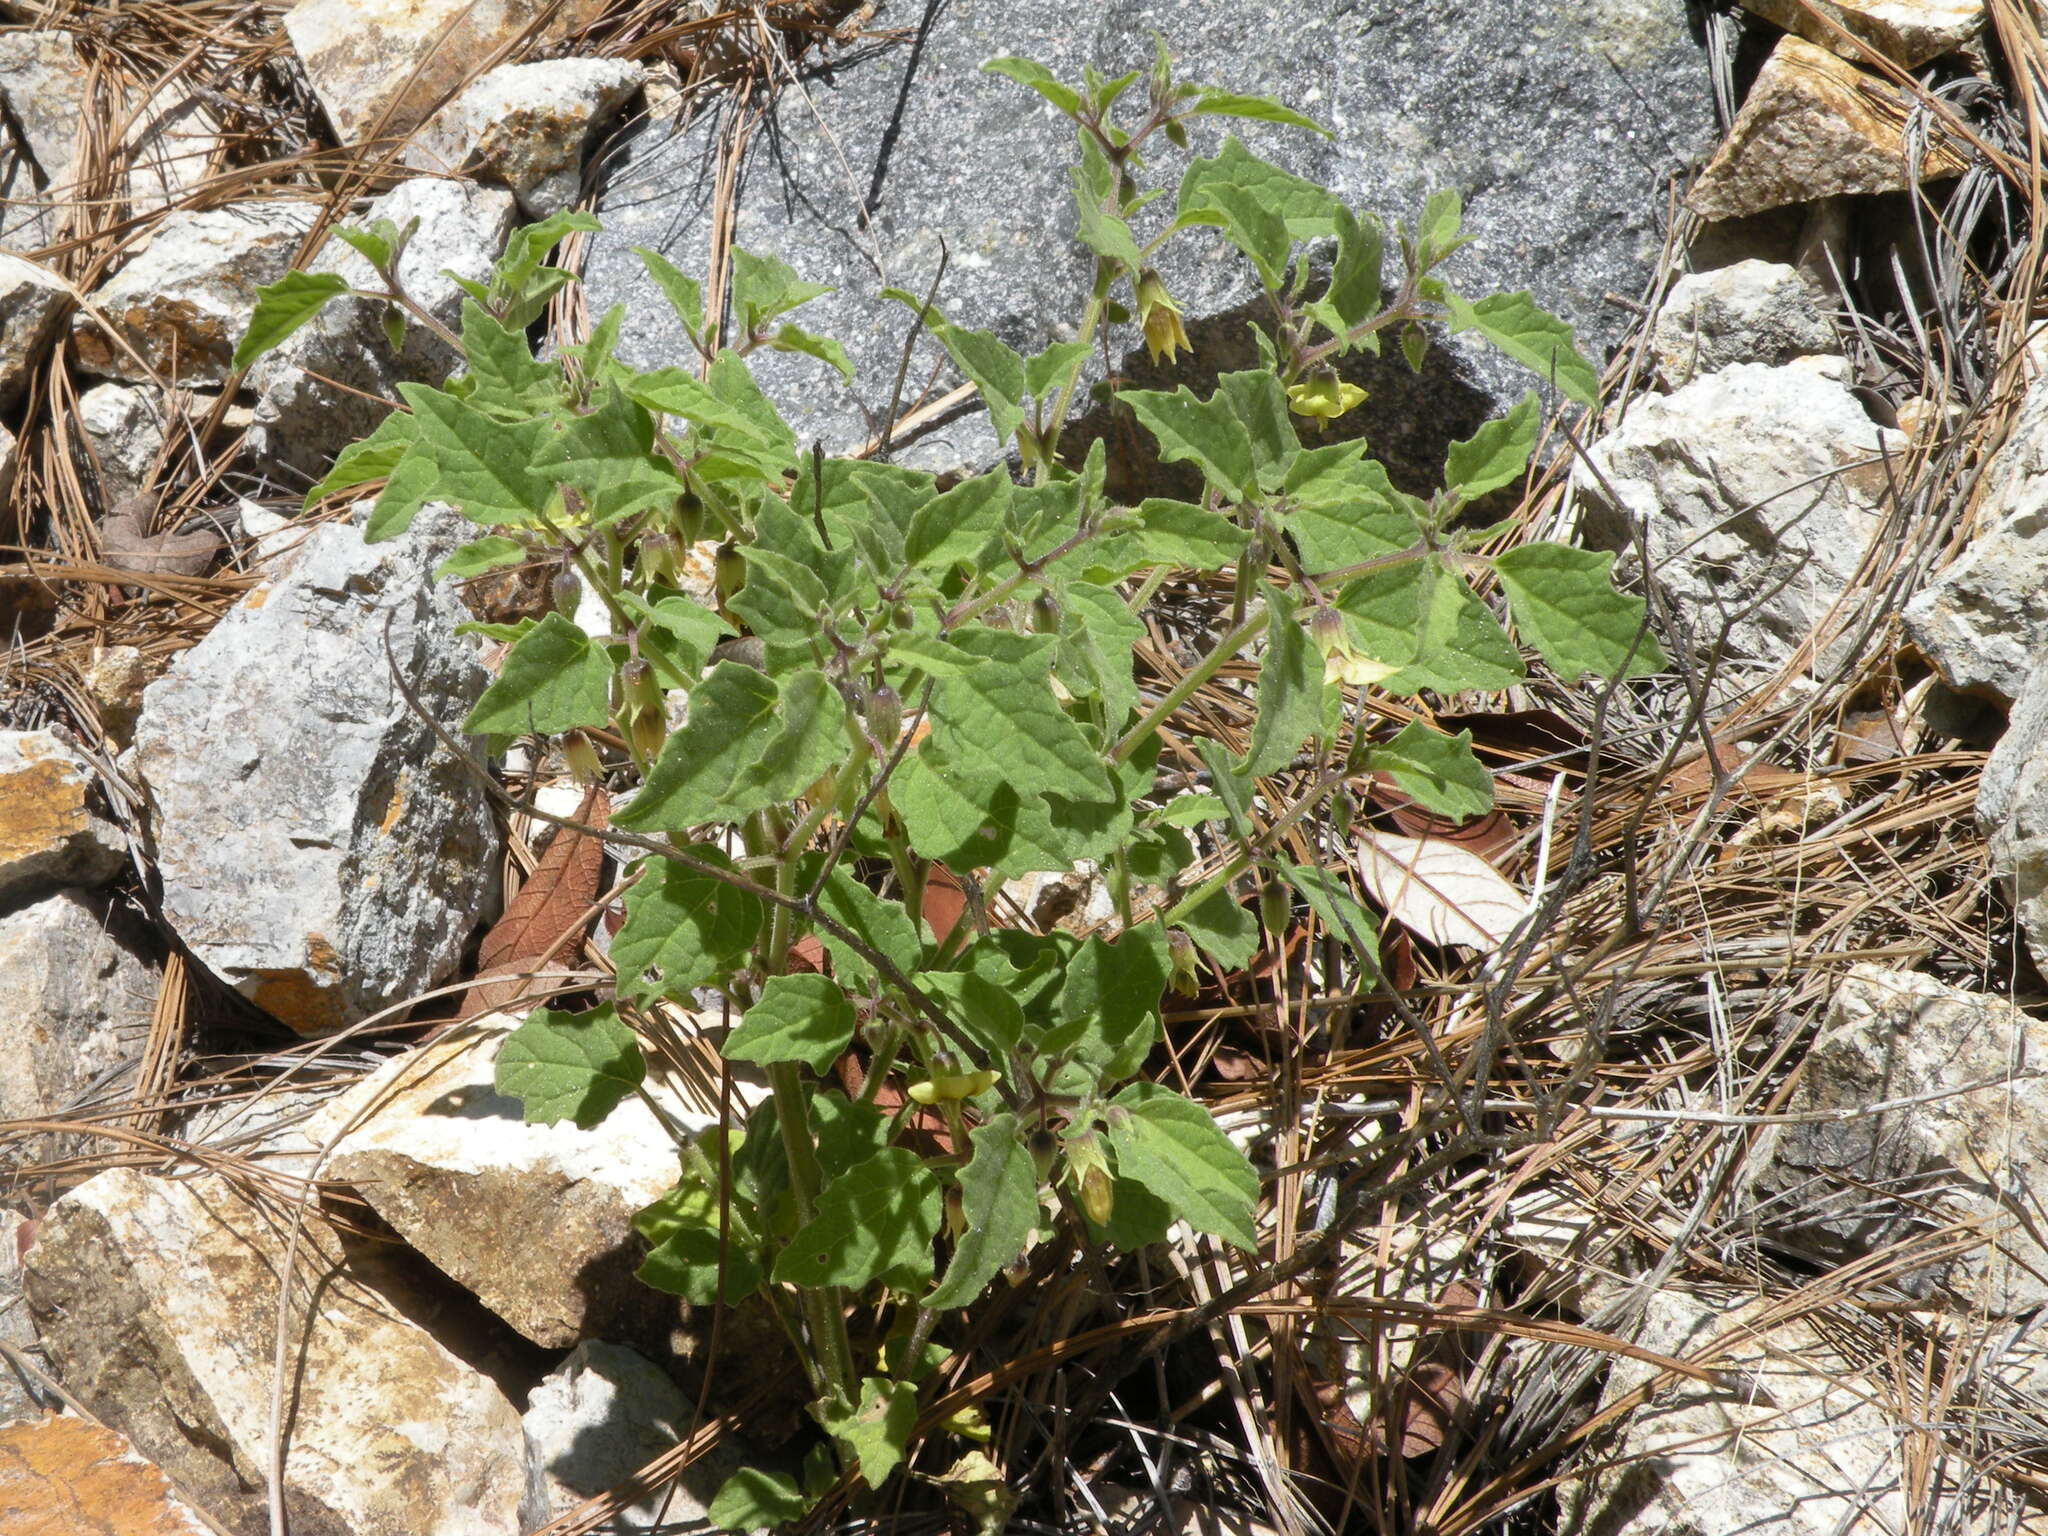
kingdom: Plantae
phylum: Tracheophyta
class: Magnoliopsida
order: Solanales
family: Solanaceae
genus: Physalis
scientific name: Physalis sordida
